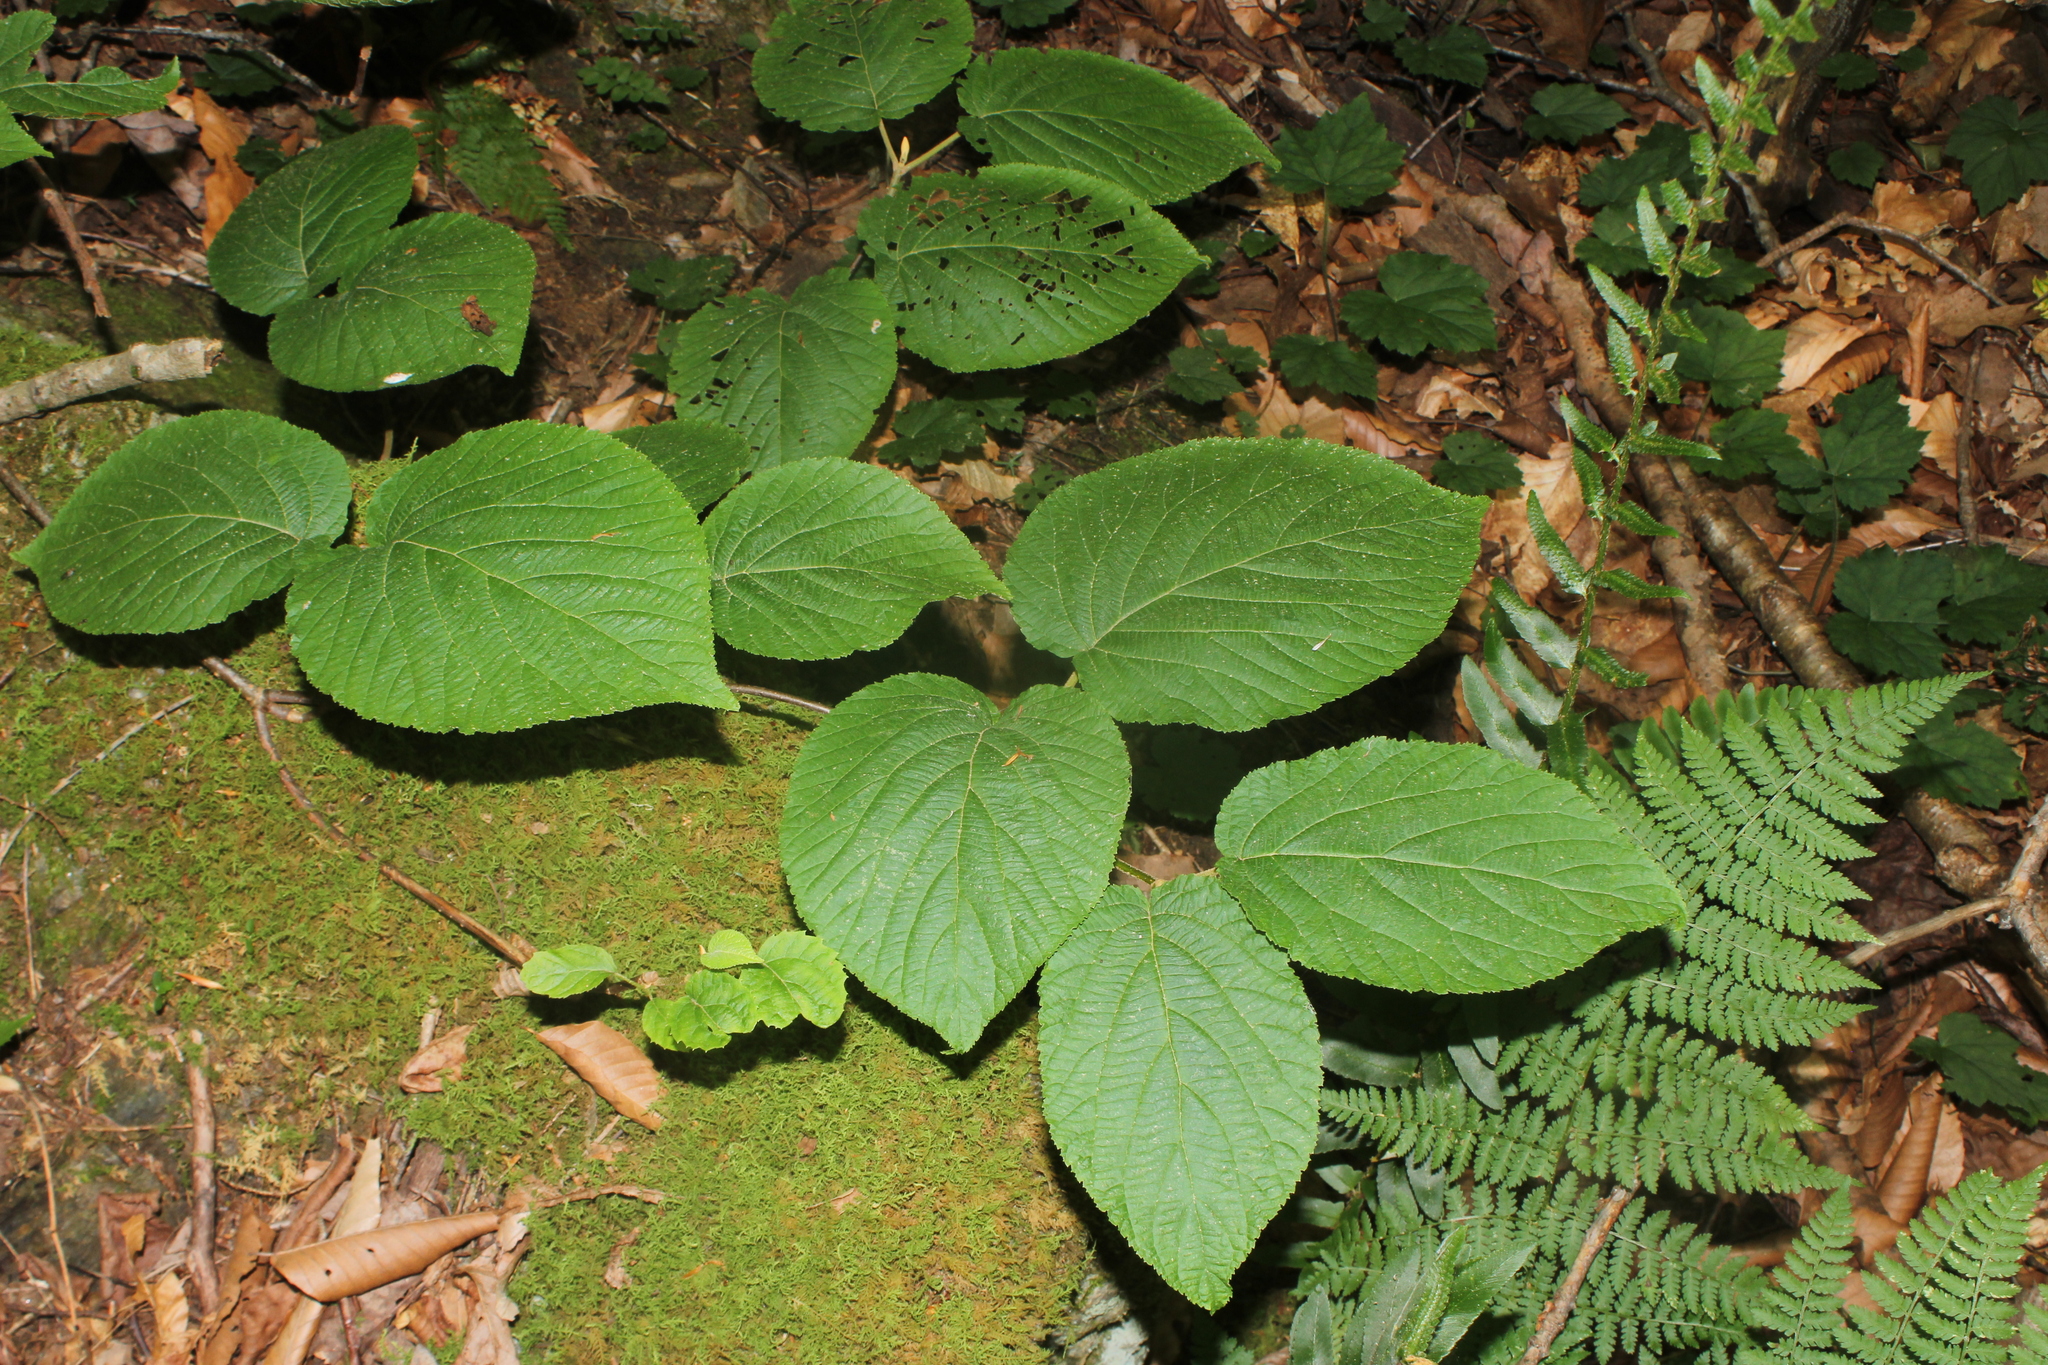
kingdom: Plantae
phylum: Tracheophyta
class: Magnoliopsida
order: Dipsacales
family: Viburnaceae
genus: Viburnum
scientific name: Viburnum lantanoides
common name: Hobblebush
